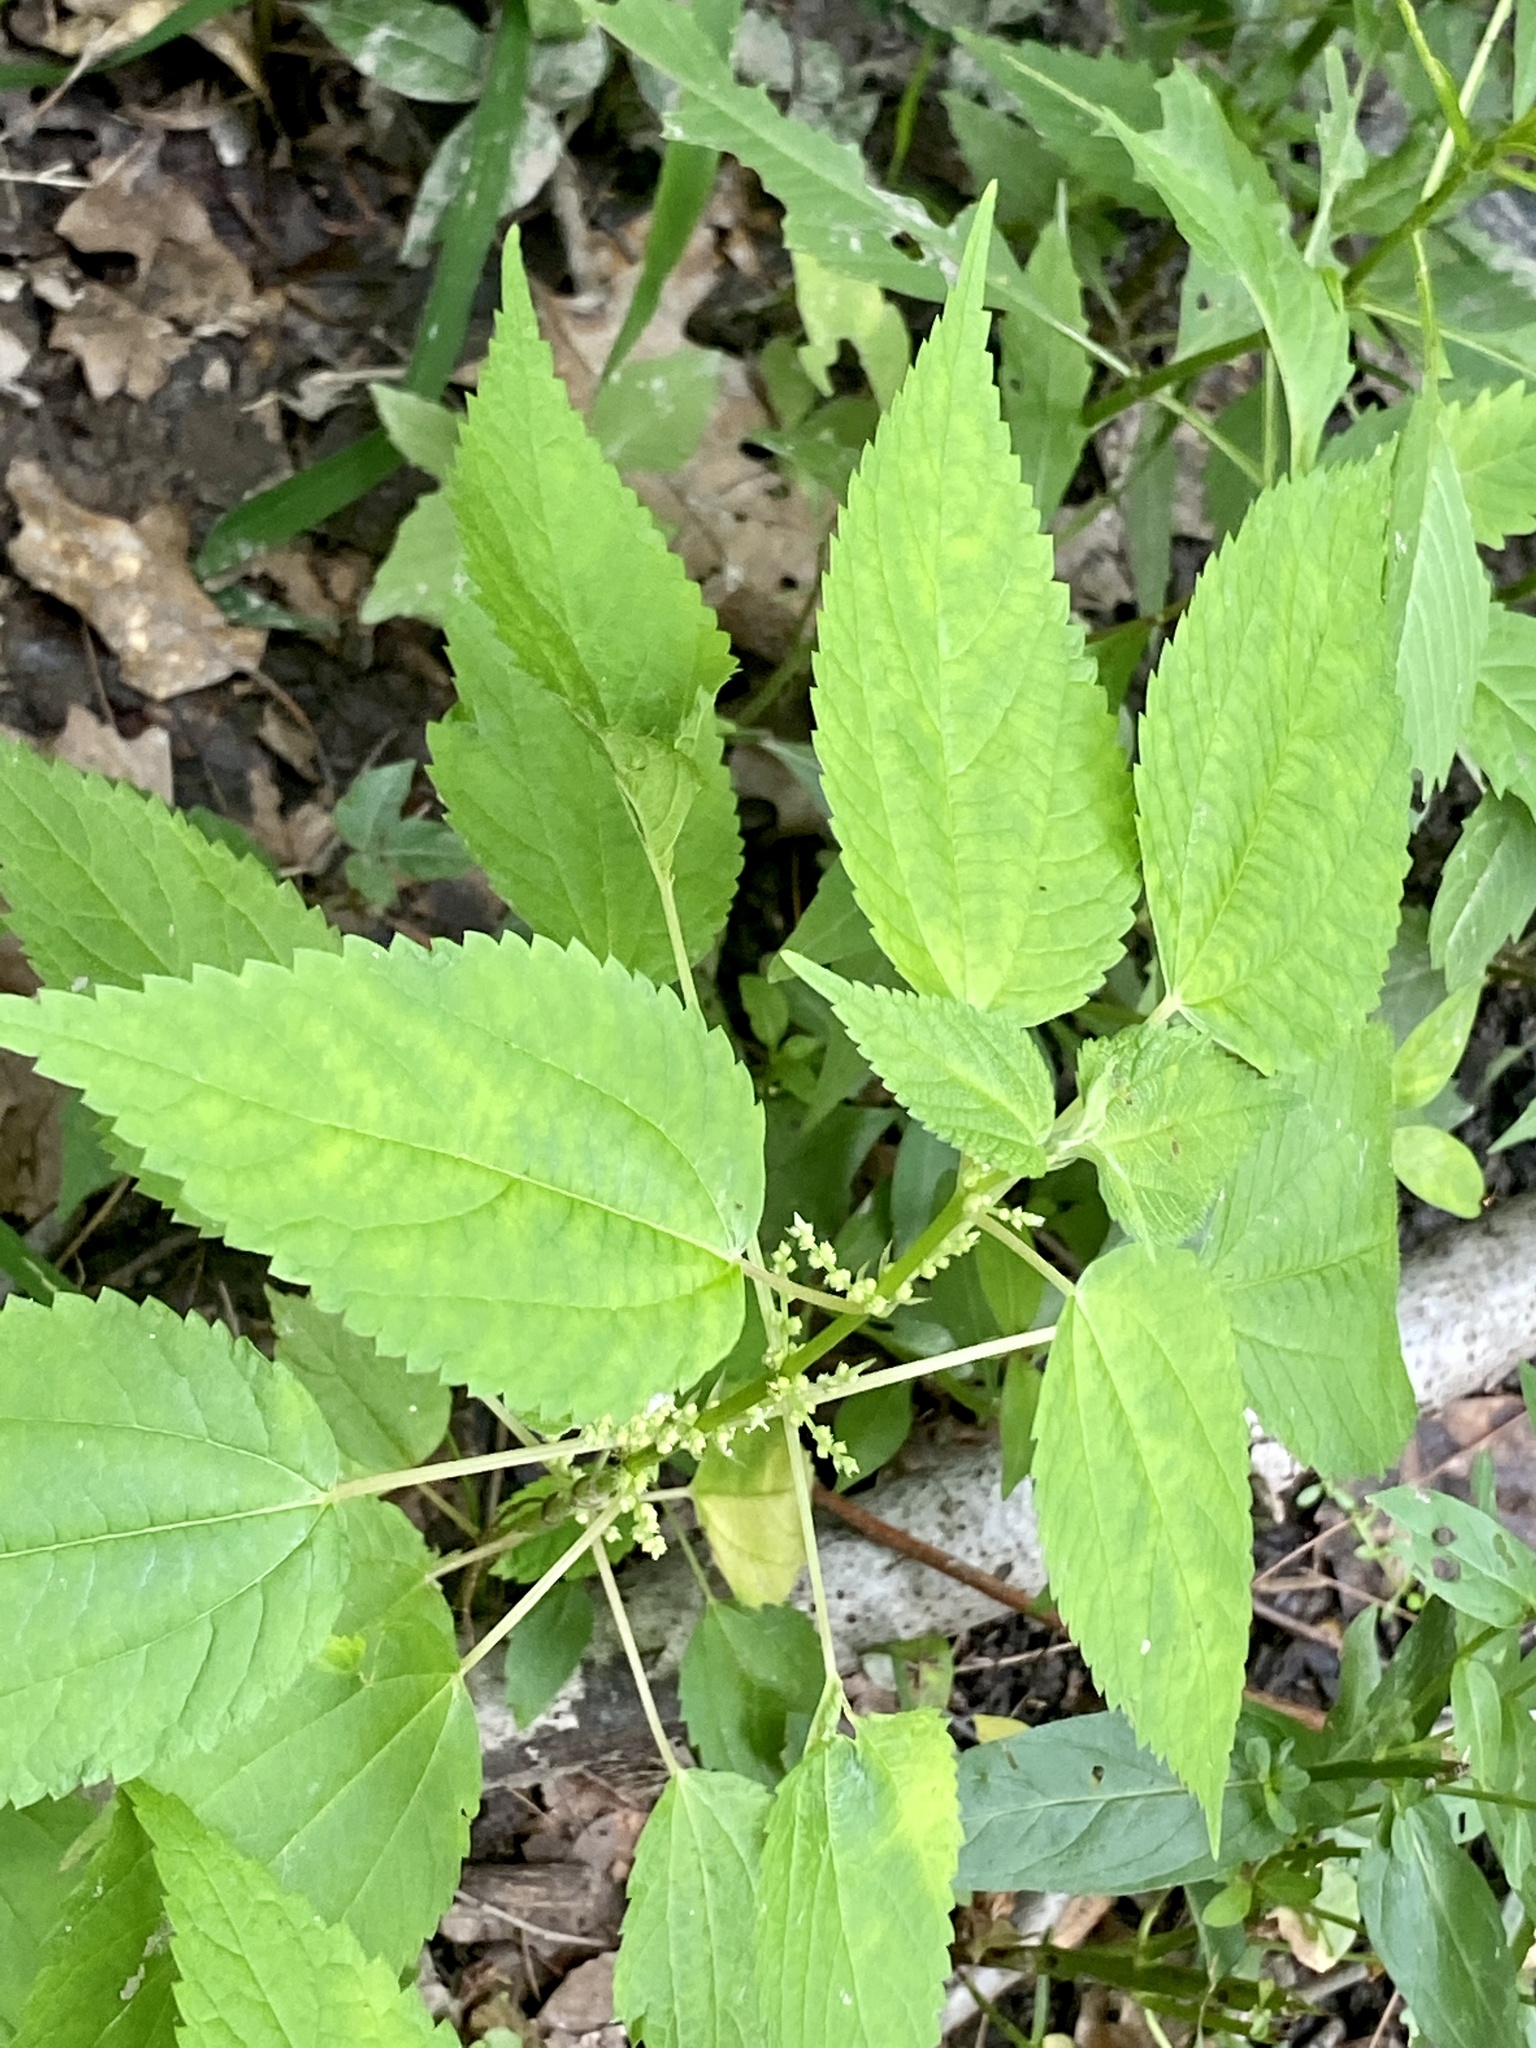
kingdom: Plantae
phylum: Tracheophyta
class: Magnoliopsida
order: Rosales
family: Urticaceae
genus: Boehmeria
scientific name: Boehmeria cylindrica
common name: Bog-hemp
